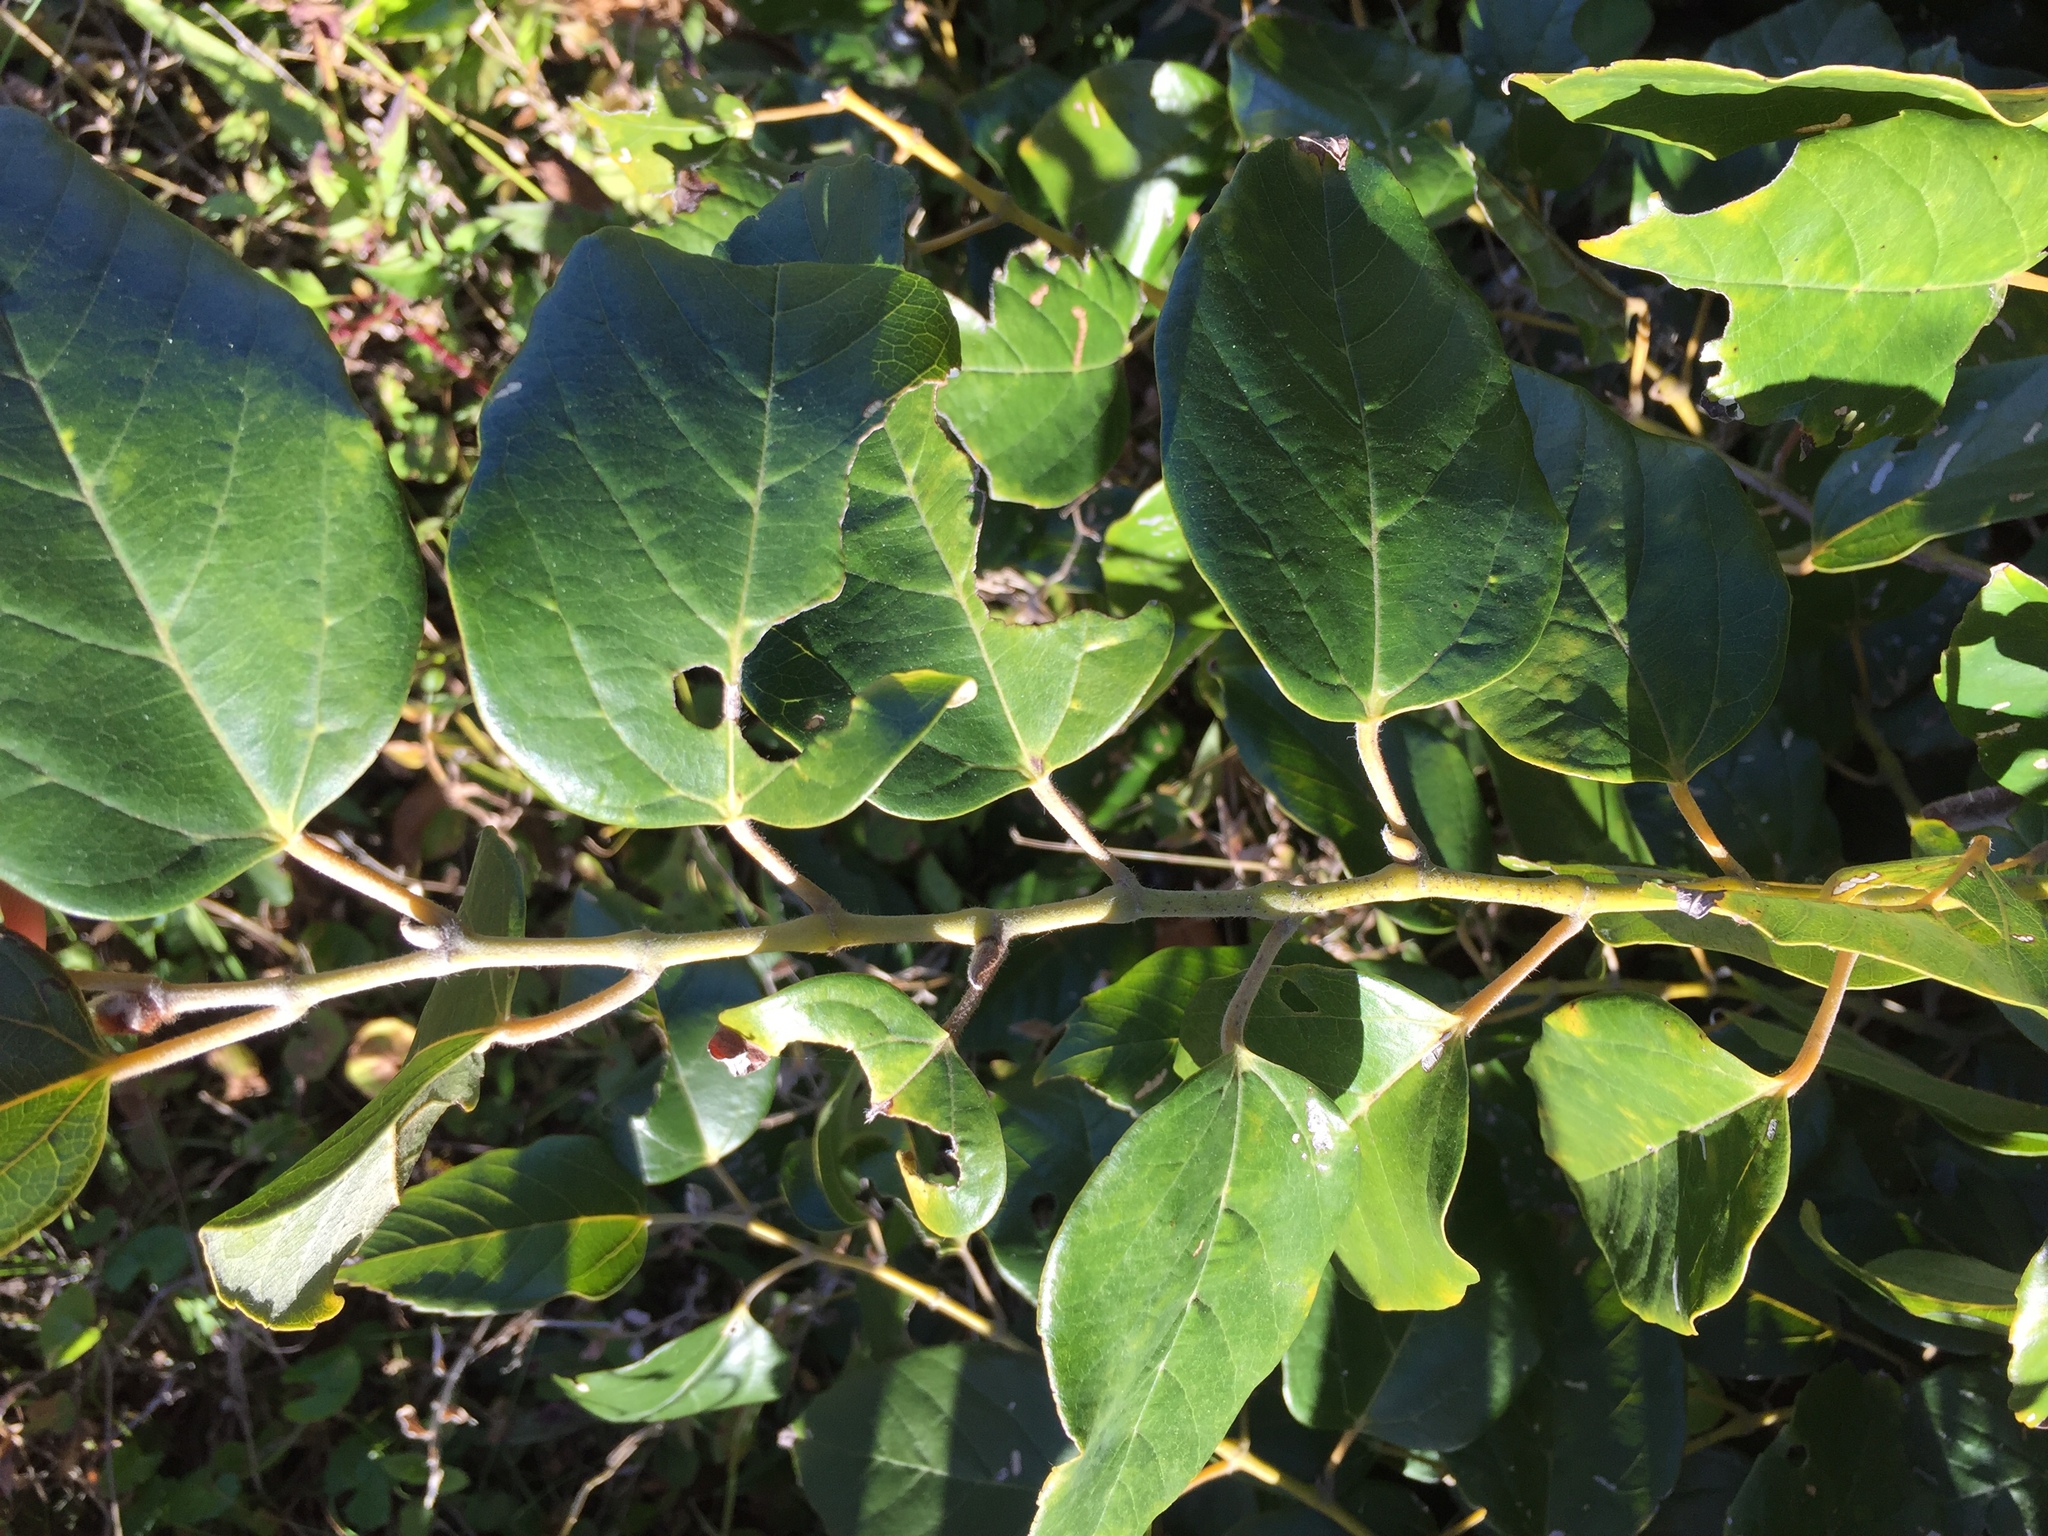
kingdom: Plantae
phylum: Tracheophyta
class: Magnoliopsida
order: Vitales
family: Vitaceae
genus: Cissus
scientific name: Cissus antarctica
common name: Kangaroo vine
